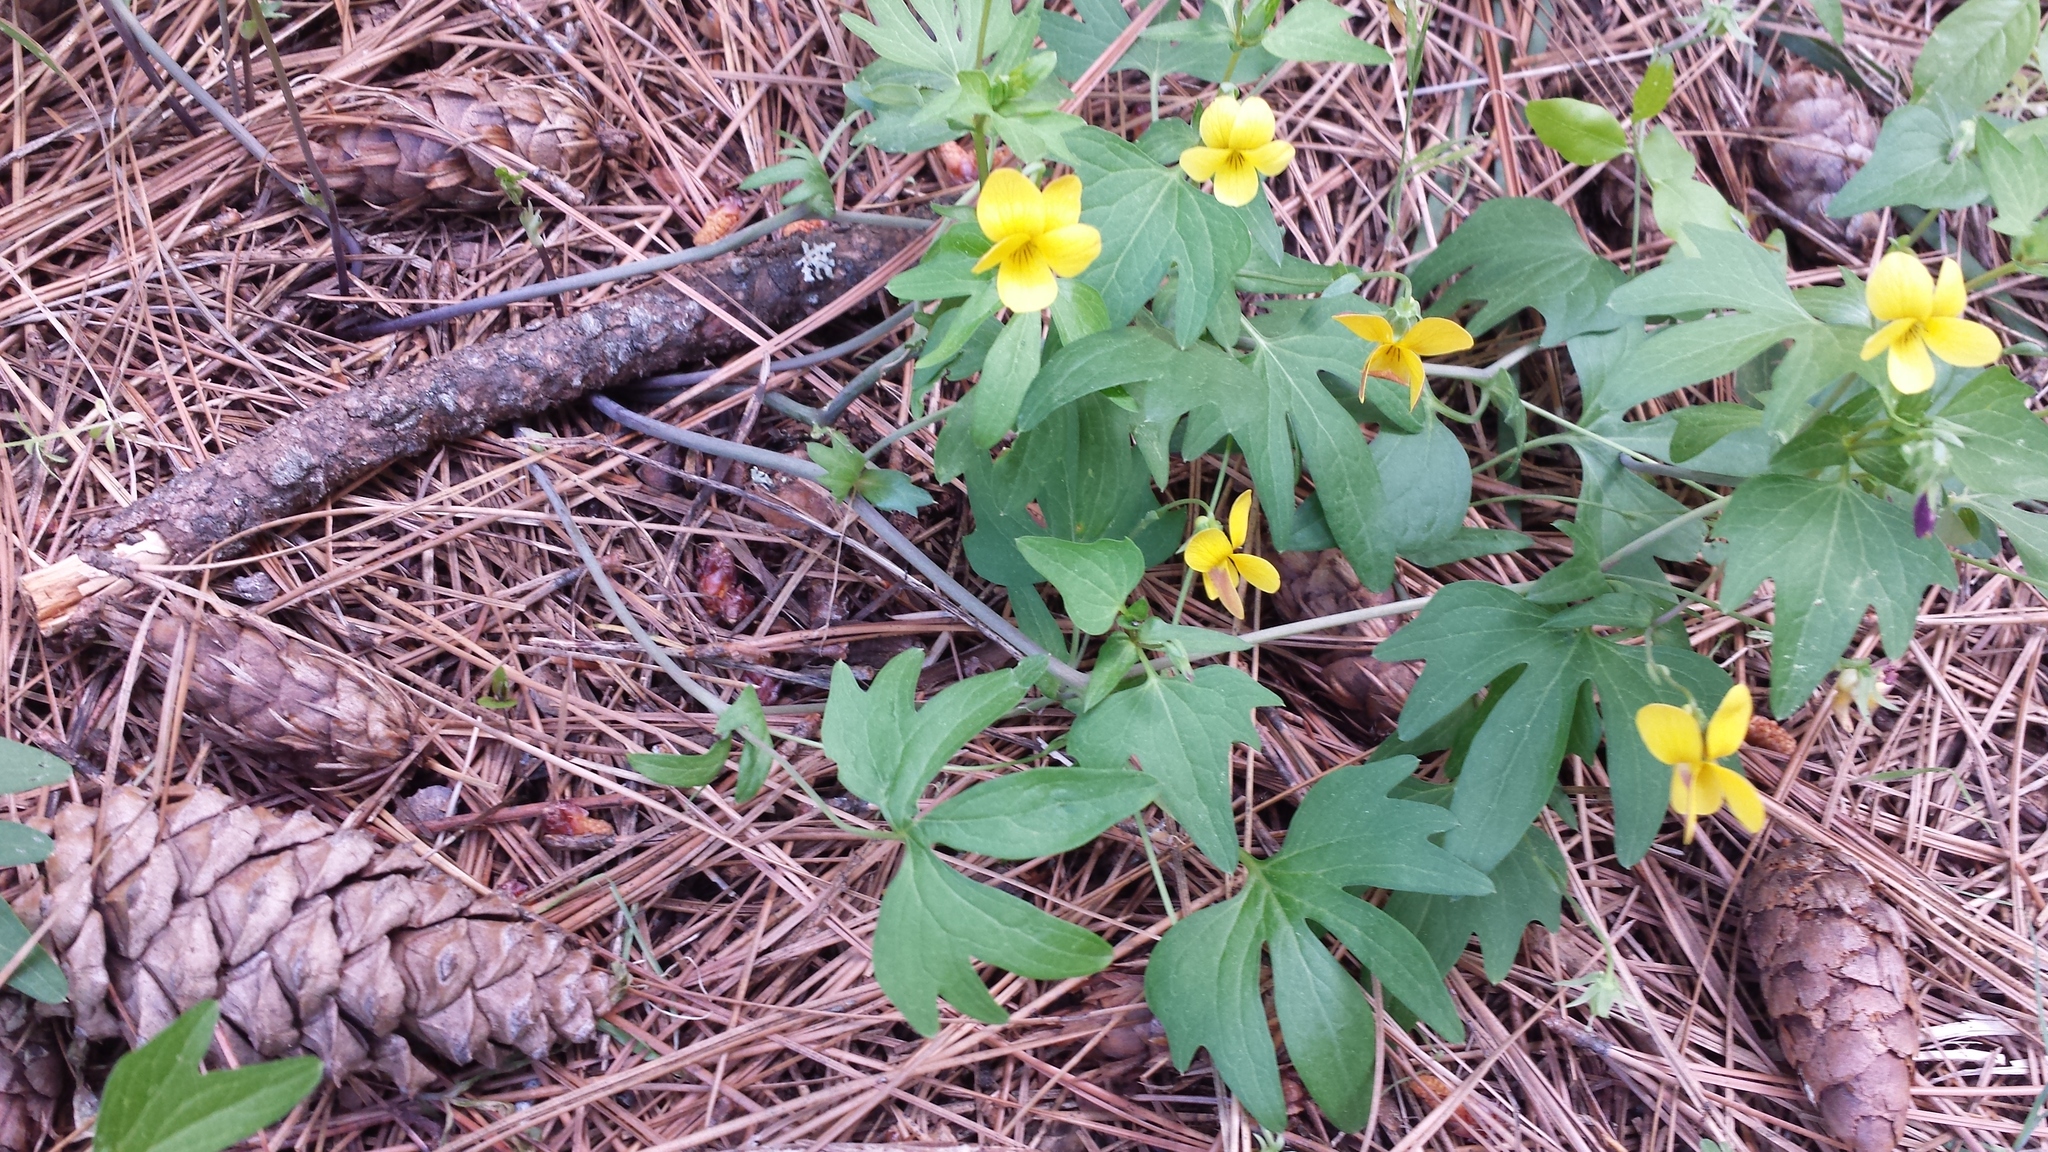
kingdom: Plantae
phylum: Tracheophyta
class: Magnoliopsida
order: Malpighiales
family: Violaceae
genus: Viola
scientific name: Viola lobata
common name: Pine violet
